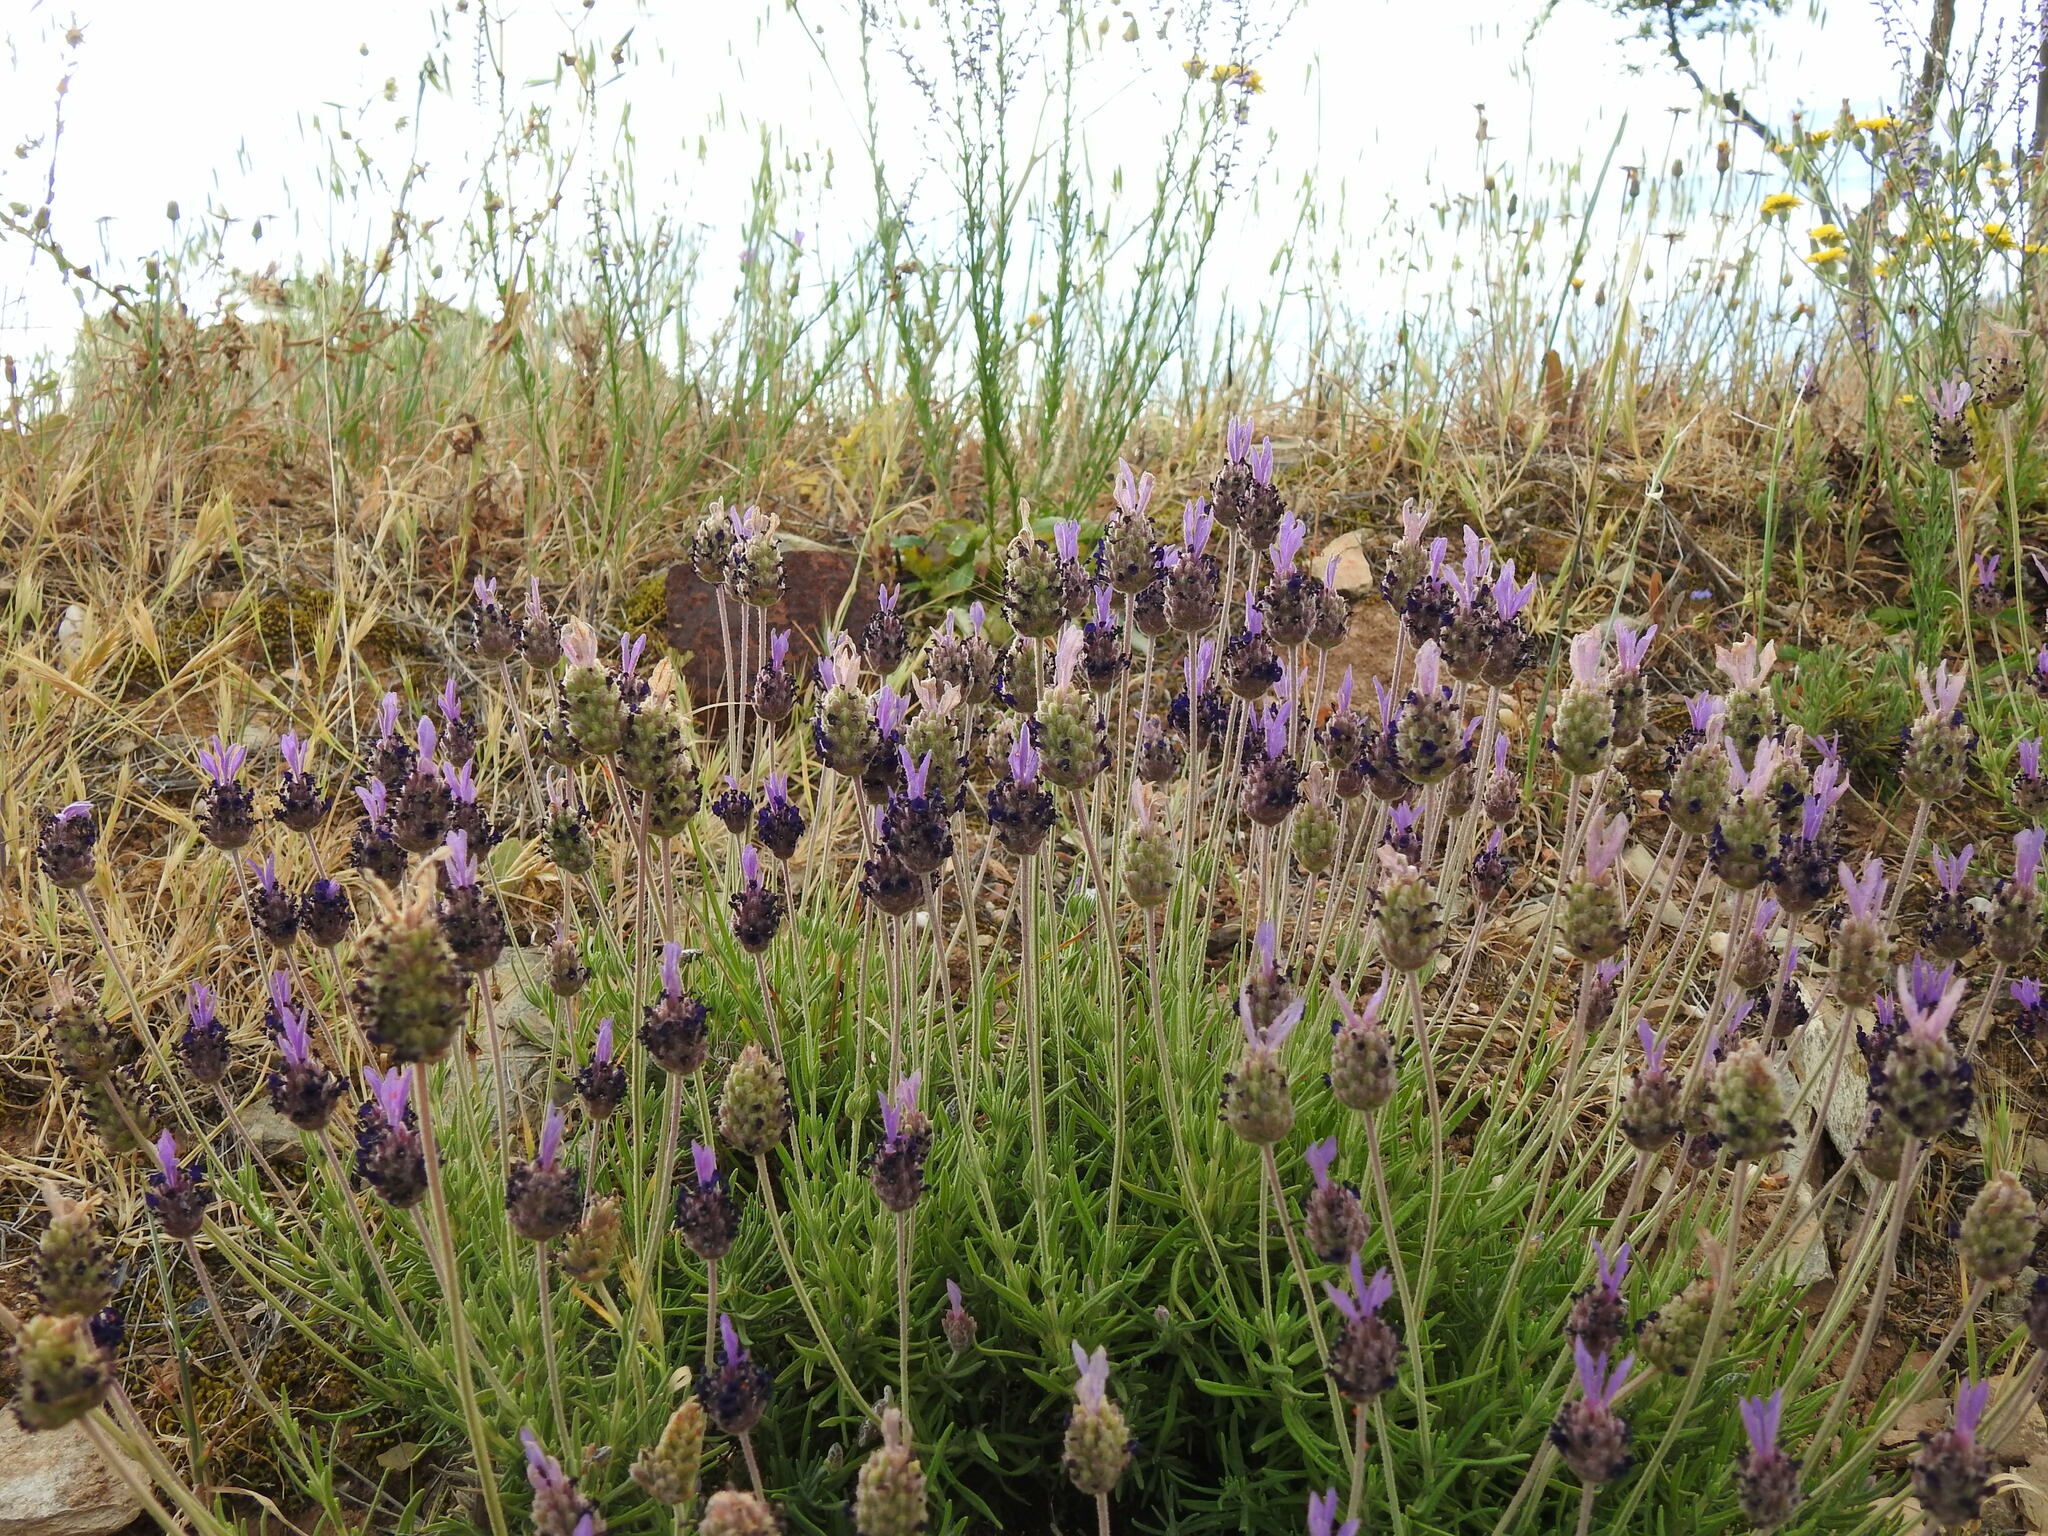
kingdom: Plantae
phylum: Tracheophyta
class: Magnoliopsida
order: Lamiales
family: Lamiaceae
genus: Lavandula
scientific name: Lavandula pedunculata
